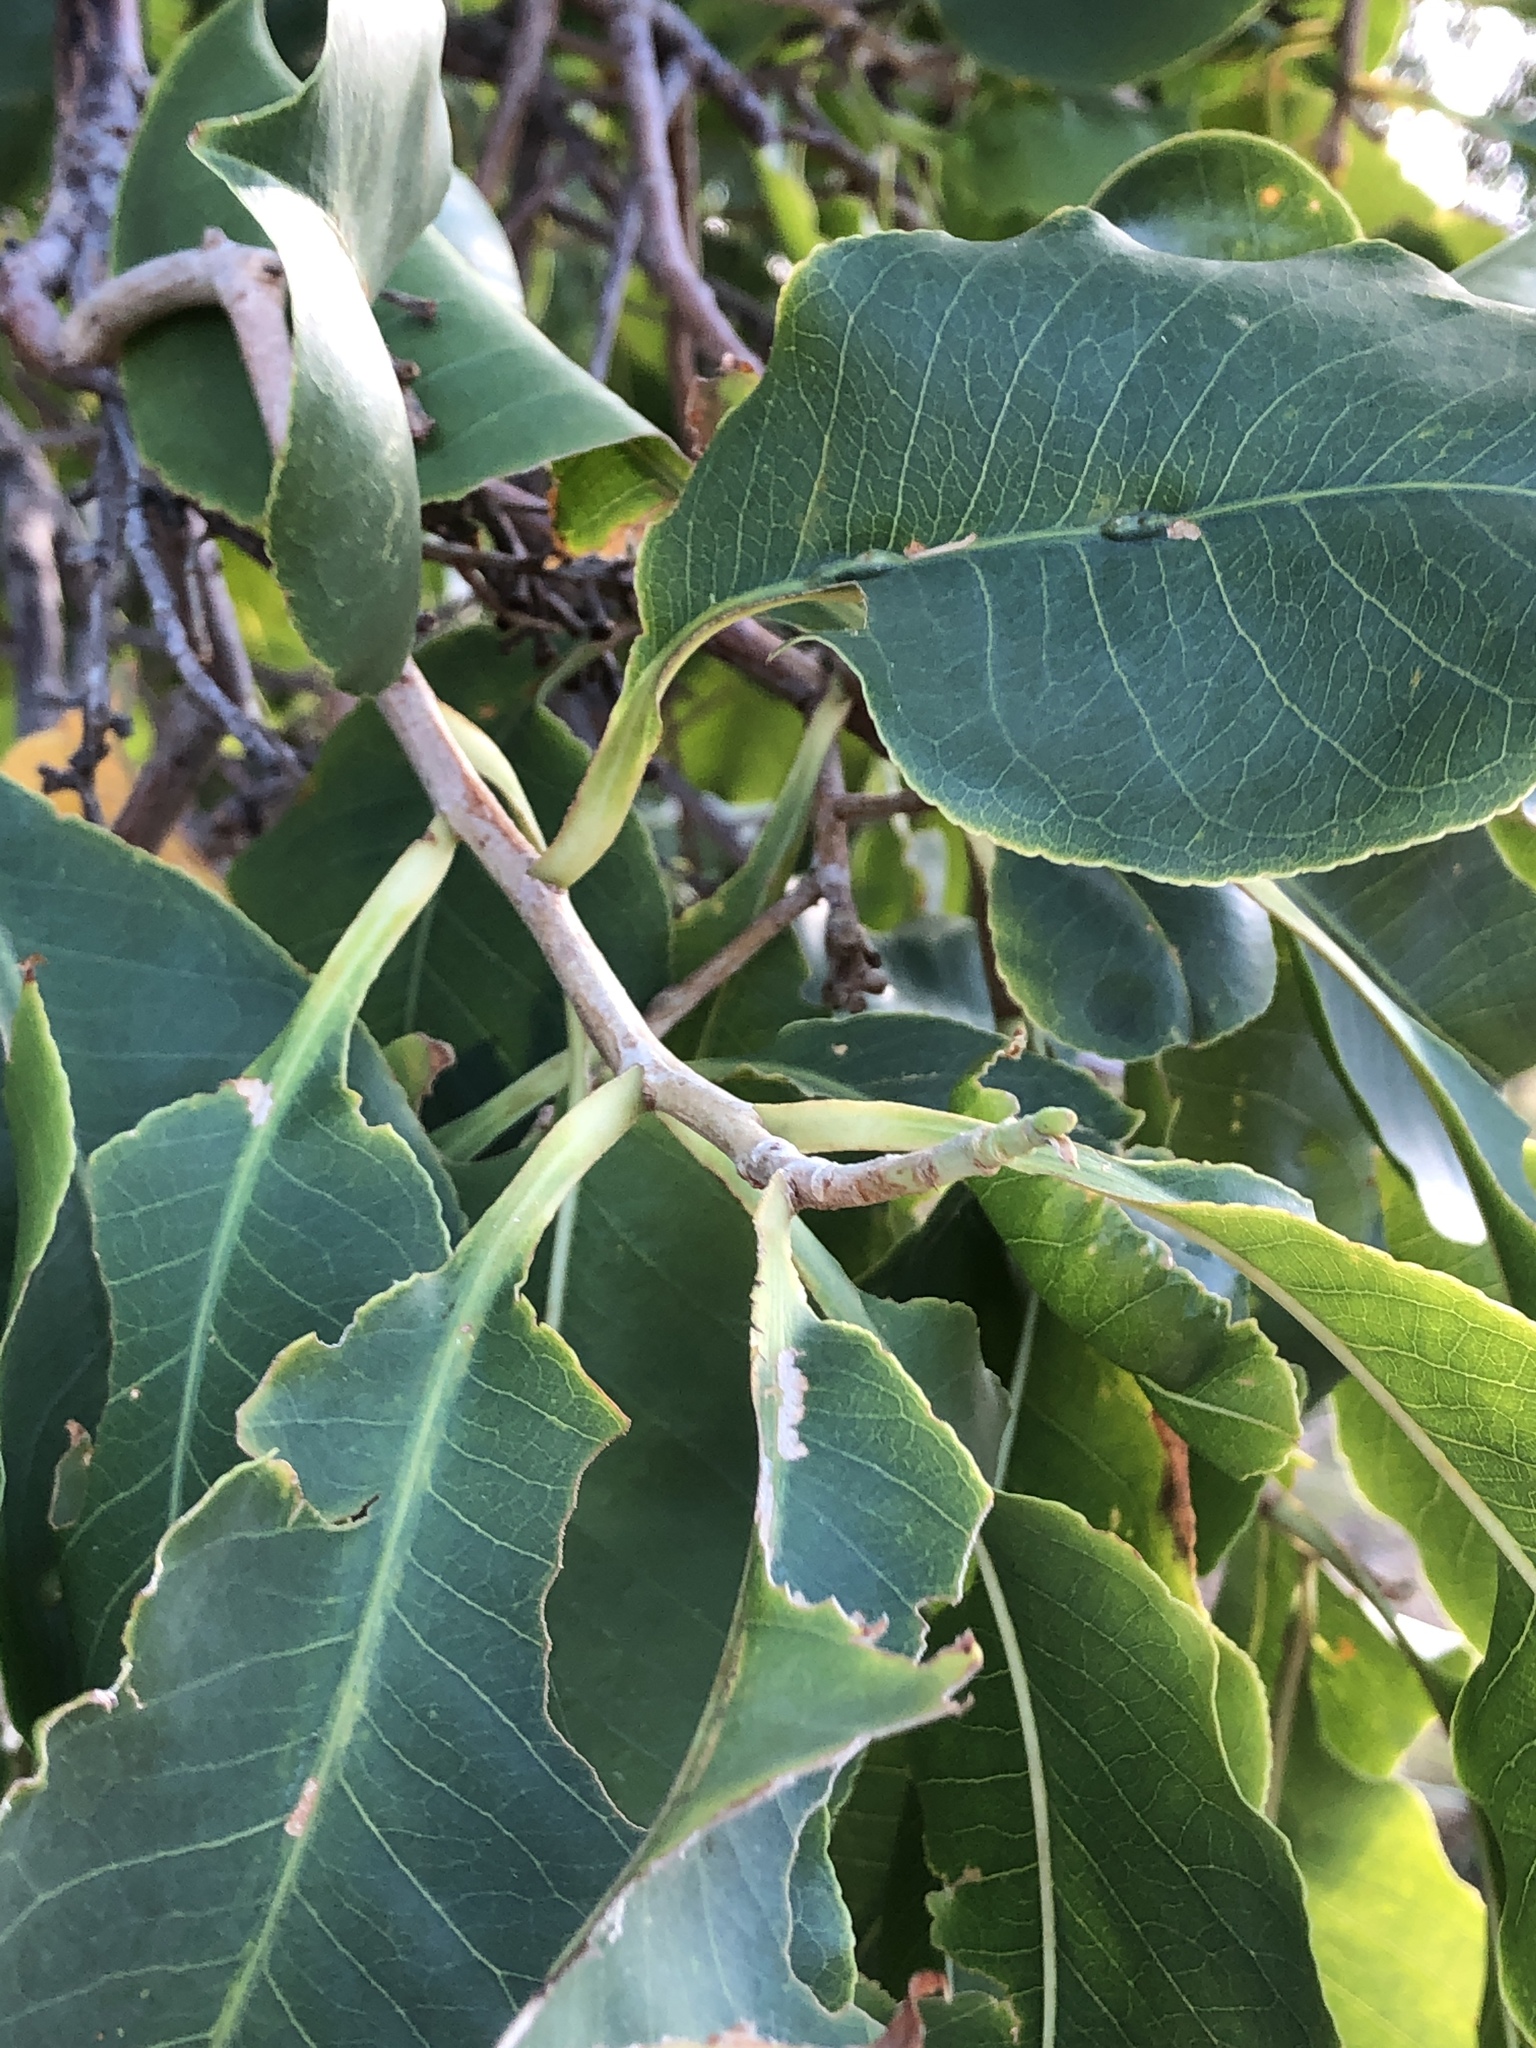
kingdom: Plantae
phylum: Tracheophyta
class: Magnoliopsida
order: Ericales
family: Lecythidaceae
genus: Planchonia
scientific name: Planchonia careya
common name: Cockatoo-apple
